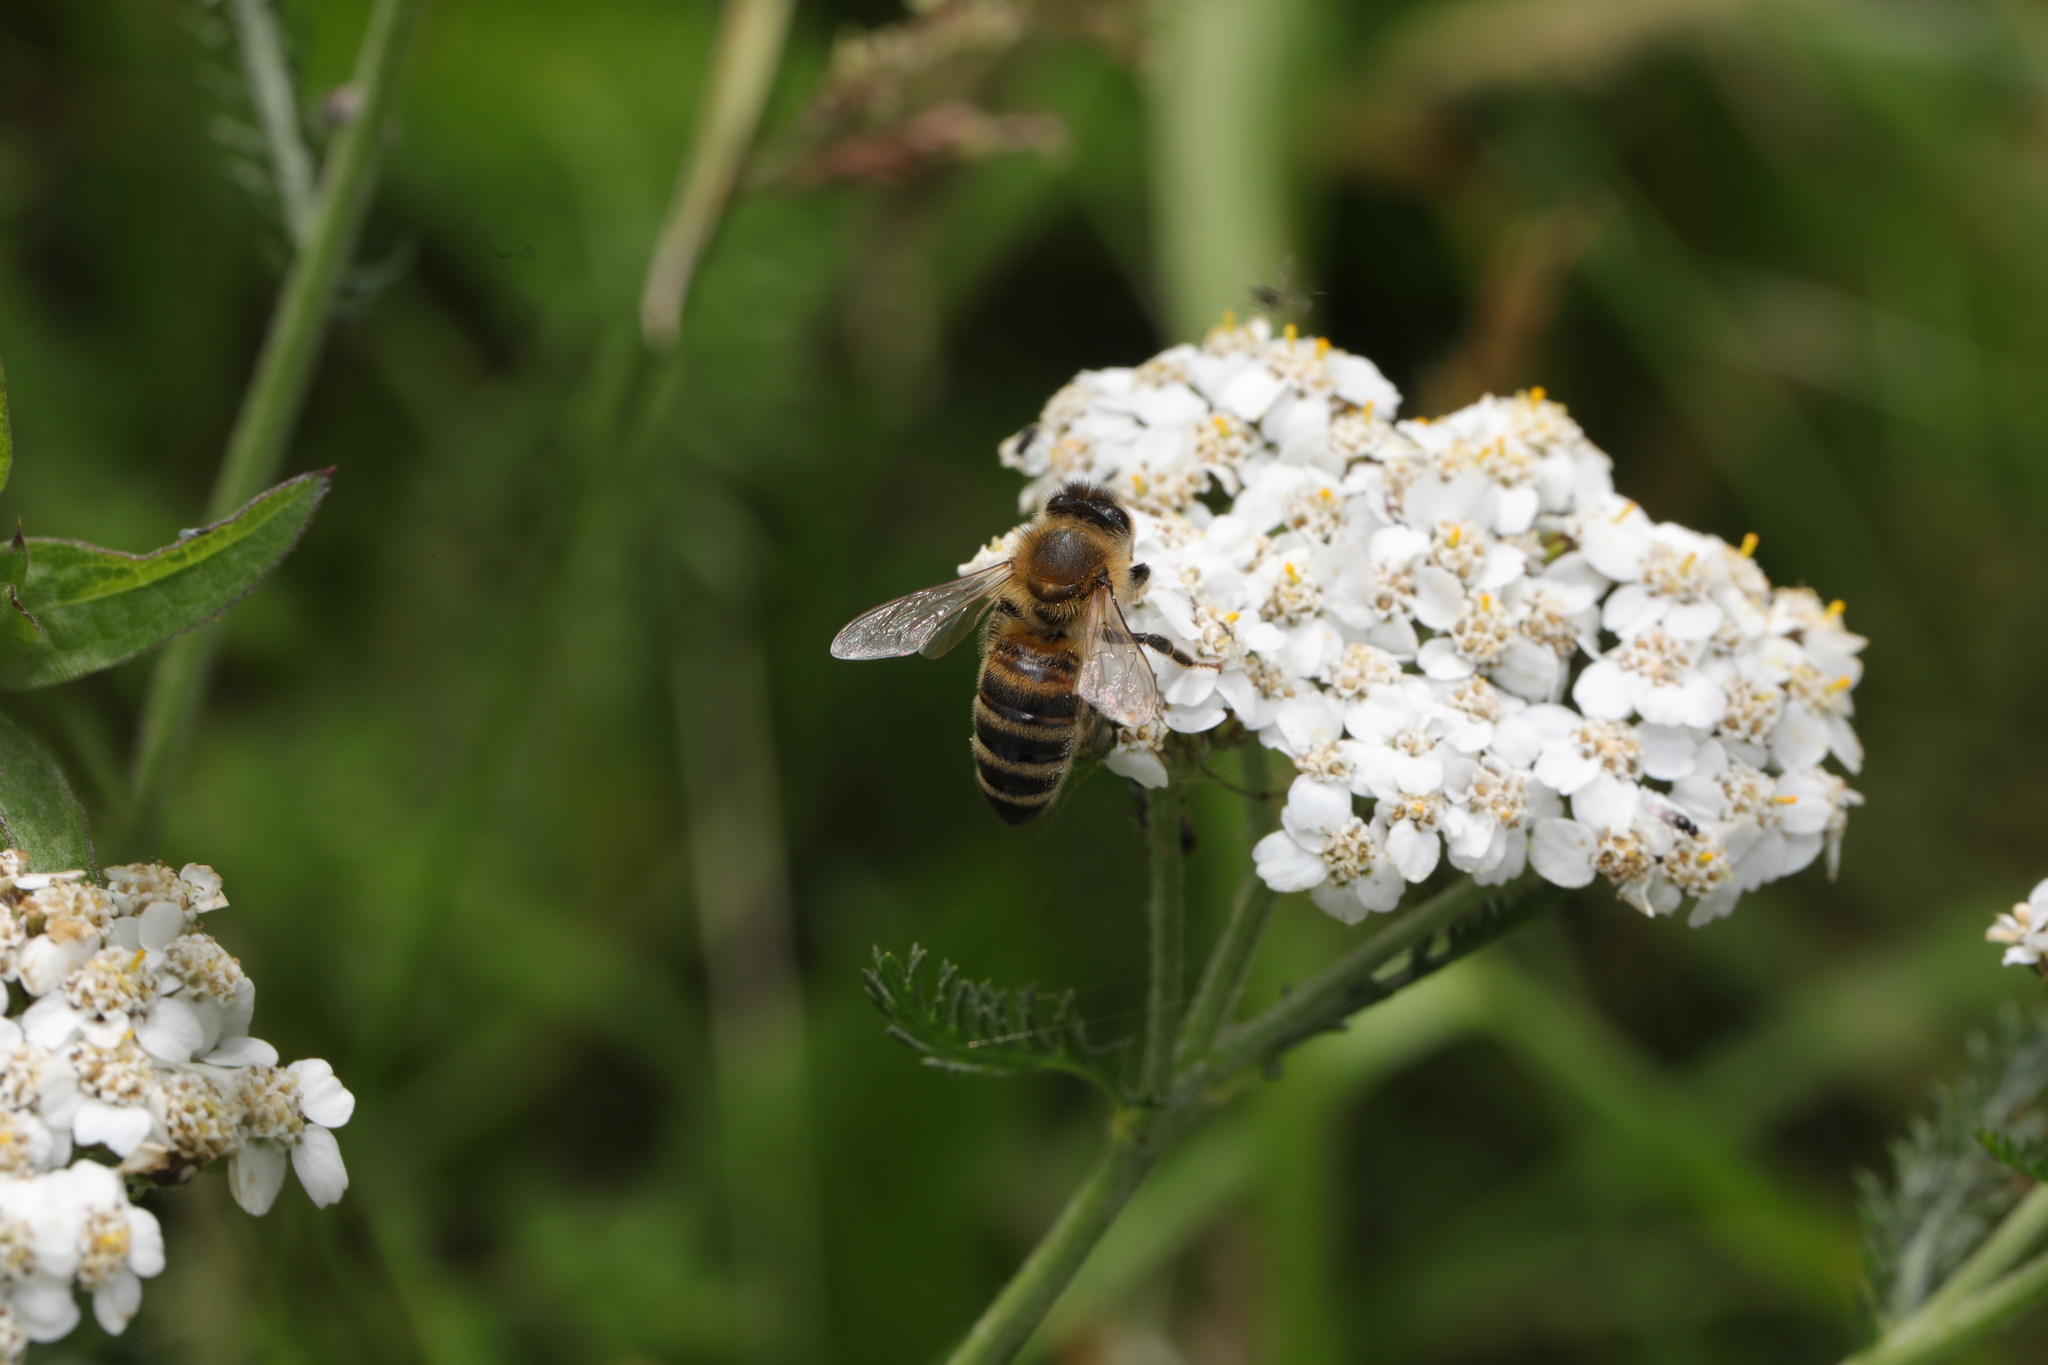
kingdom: Animalia
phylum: Arthropoda
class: Insecta
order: Hymenoptera
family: Apidae
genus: Apis
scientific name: Apis mellifera
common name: Honey bee
